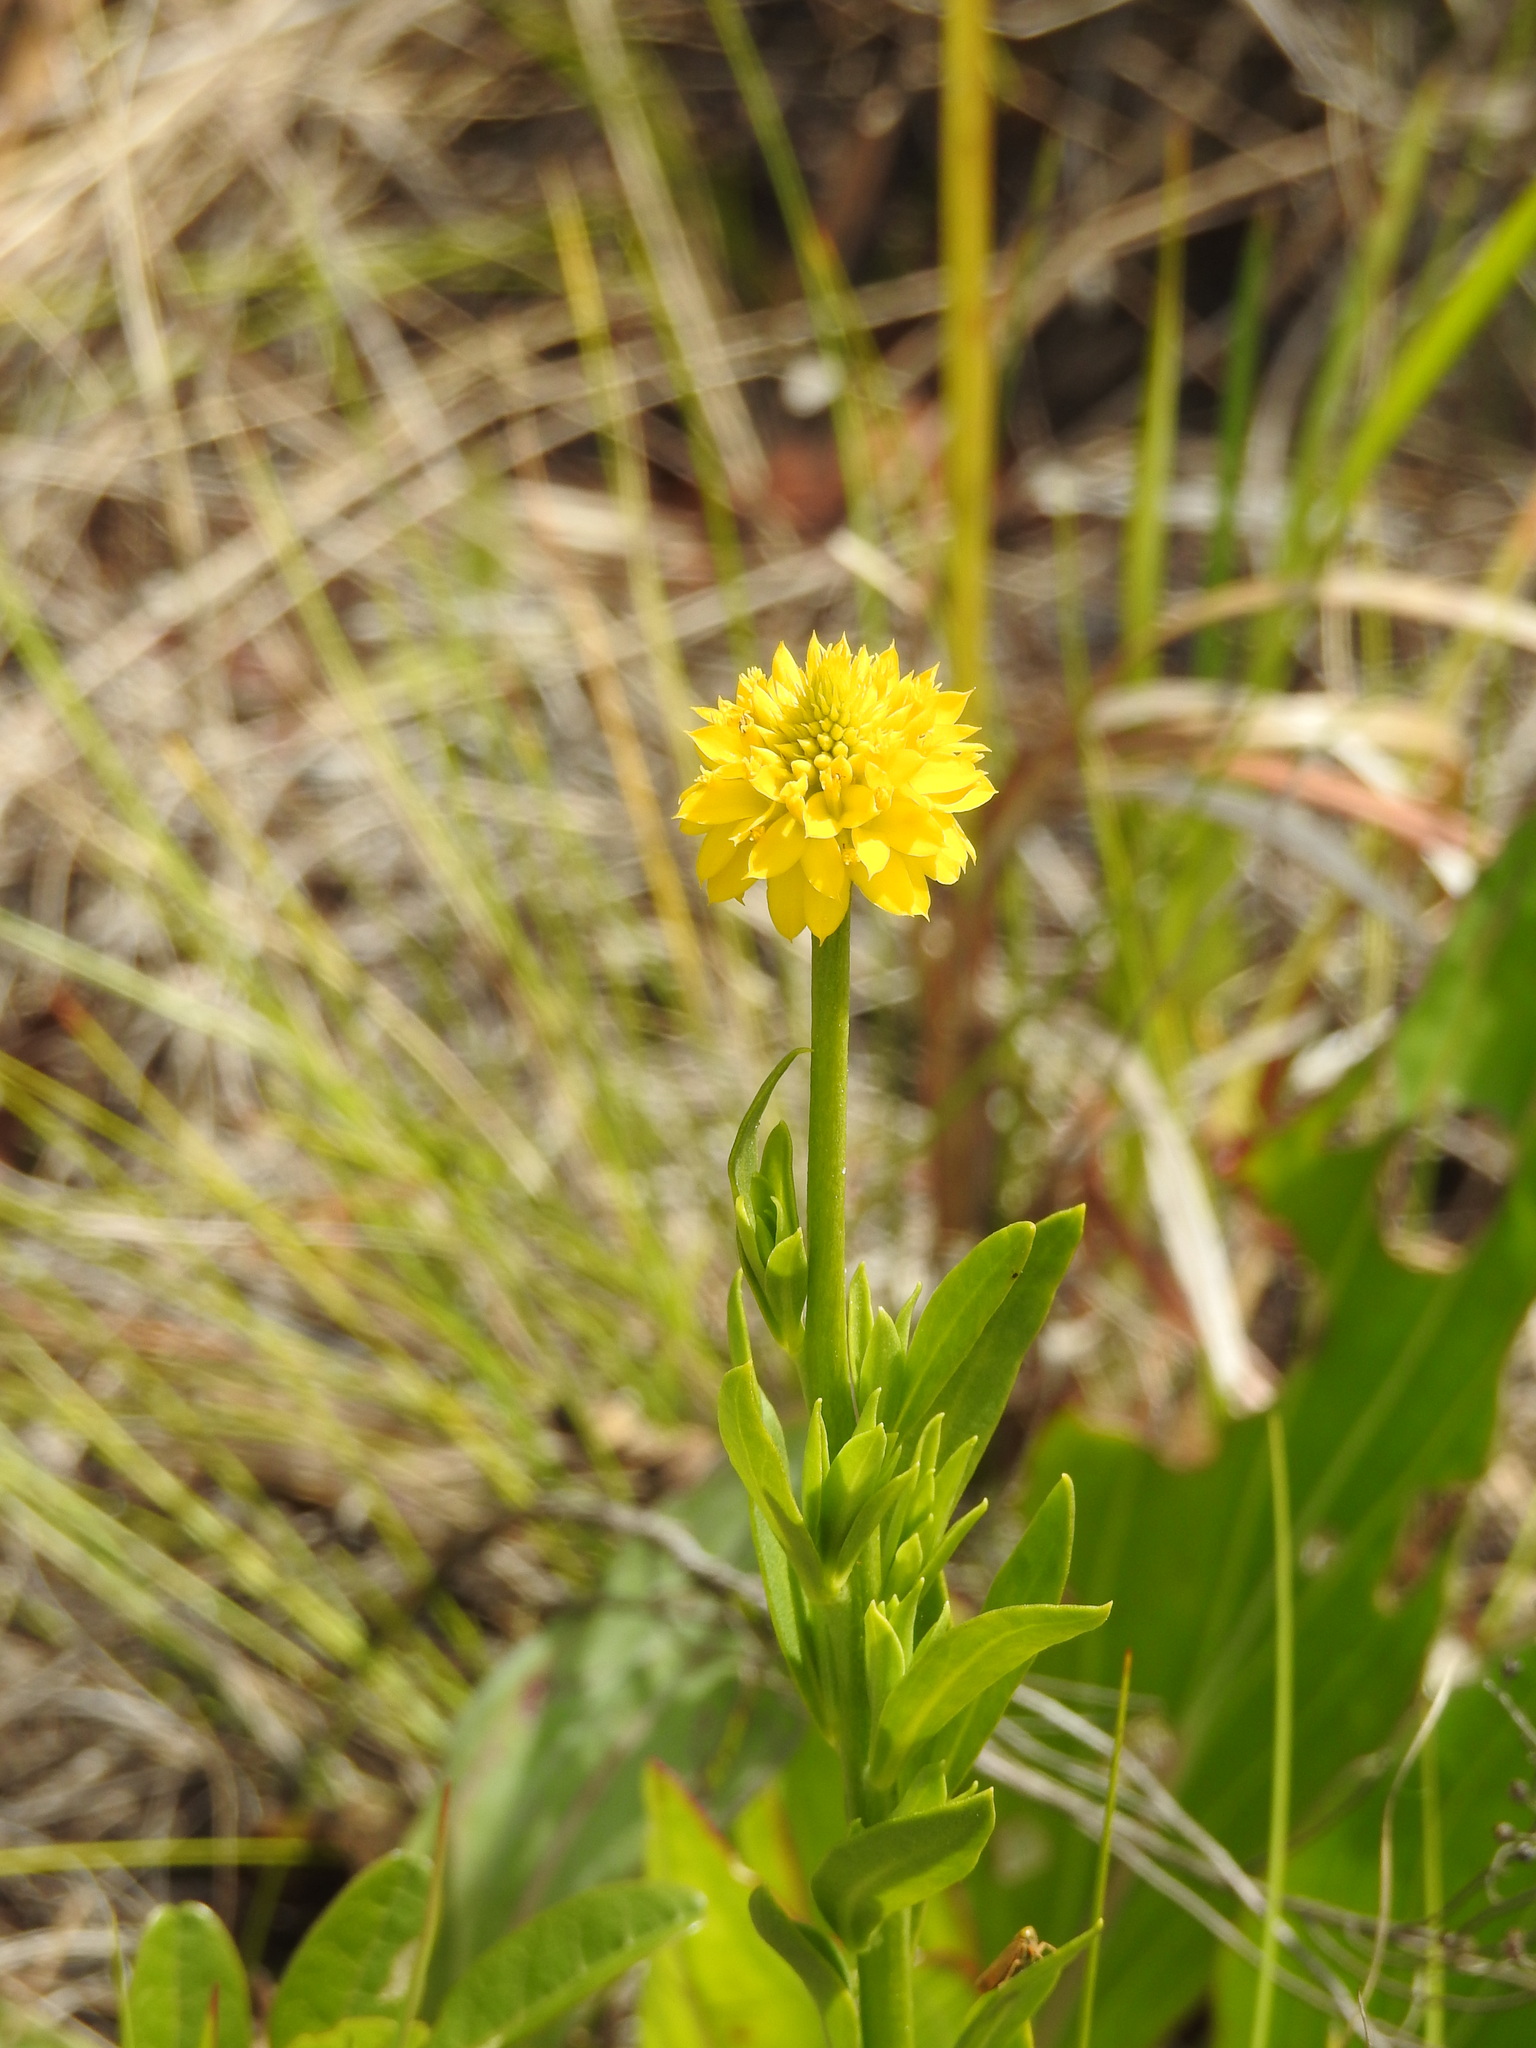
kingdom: Plantae
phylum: Tracheophyta
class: Magnoliopsida
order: Fabales
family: Polygalaceae
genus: Polygala
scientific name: Polygala rugelii
